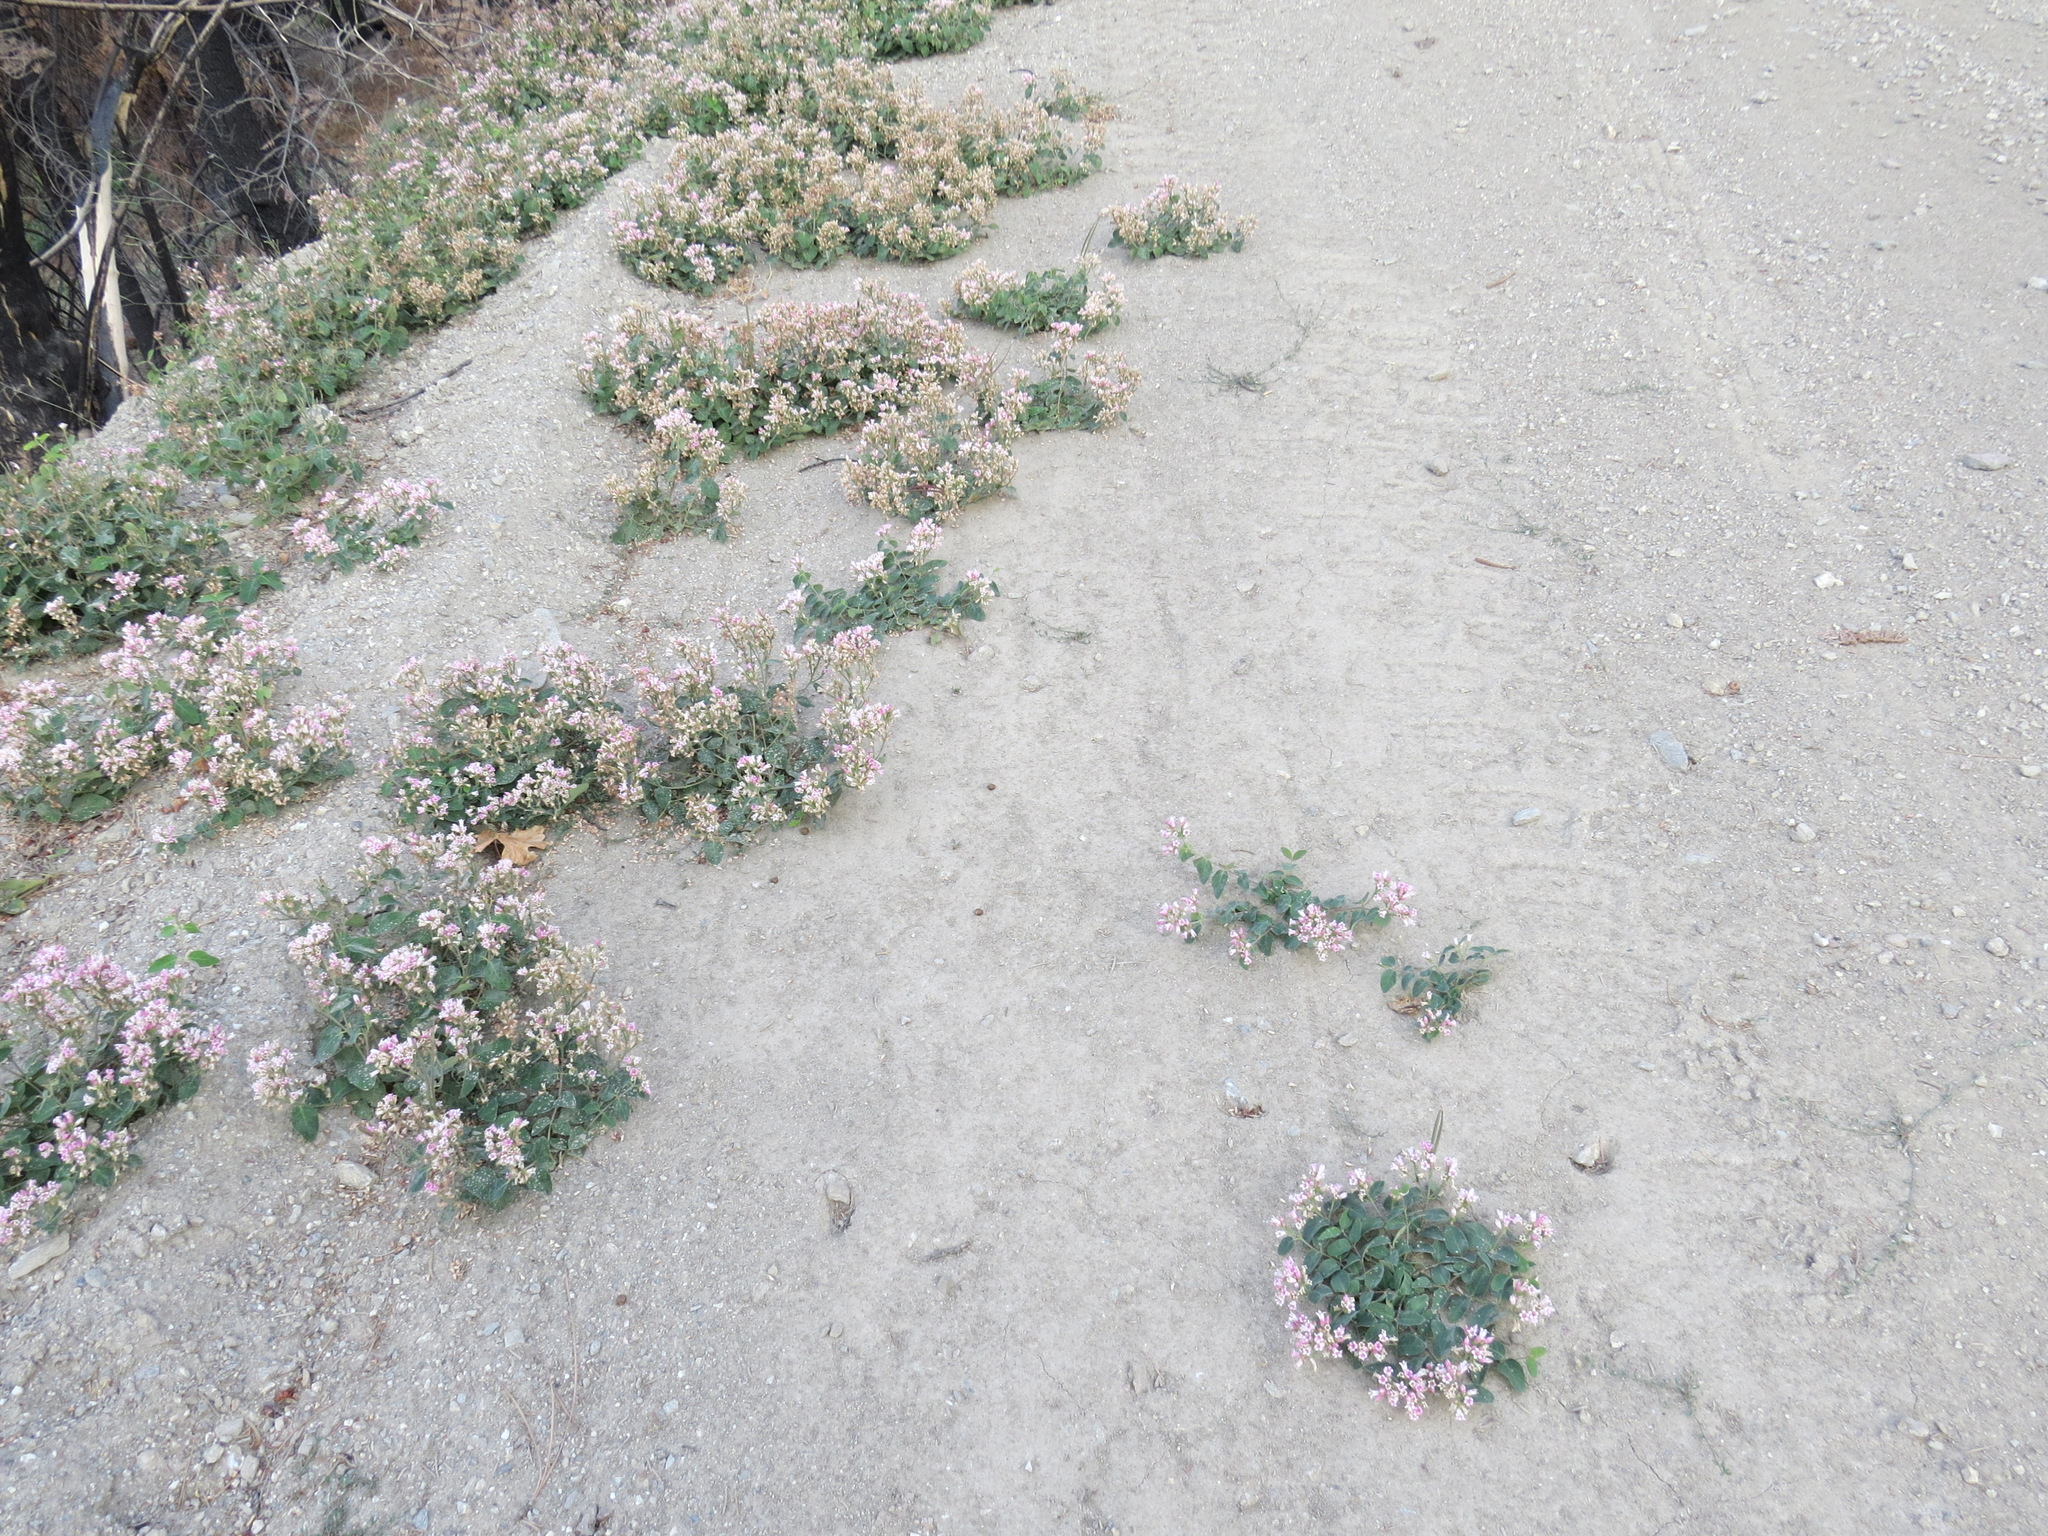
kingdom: Plantae
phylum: Tracheophyta
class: Magnoliopsida
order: Gentianales
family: Apocynaceae
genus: Apocynum
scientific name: Apocynum androsaemifolium
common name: Spreading dogbane
